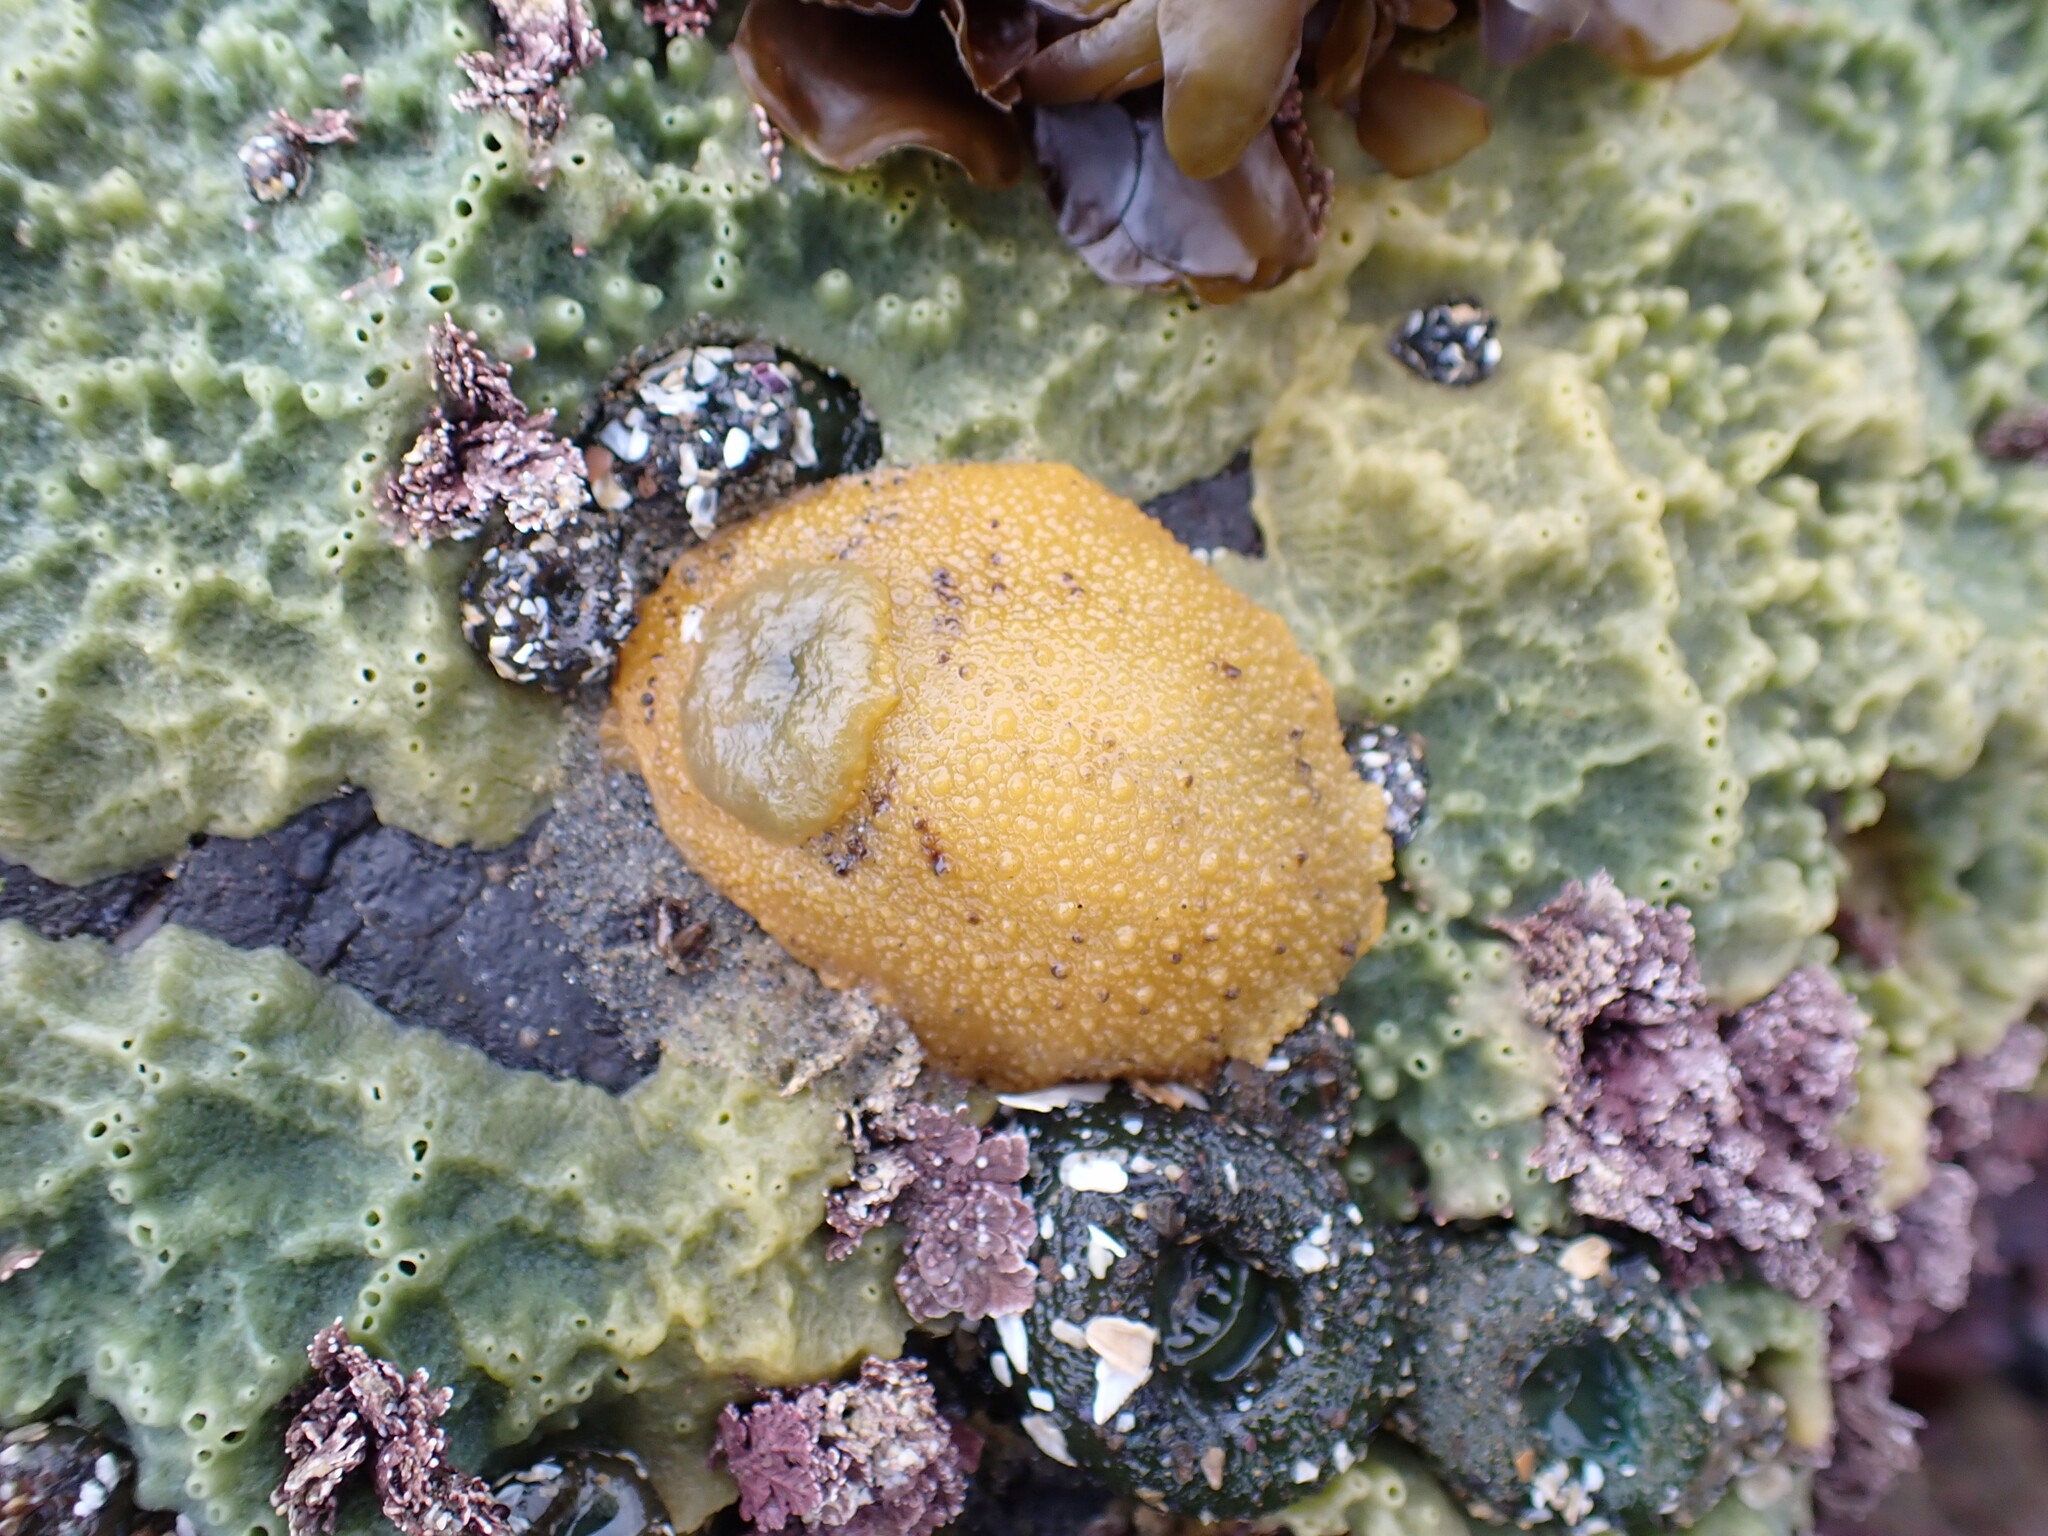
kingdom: Animalia
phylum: Mollusca
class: Gastropoda
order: Nudibranchia
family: Dorididae
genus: Doris
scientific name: Doris montereyensis
